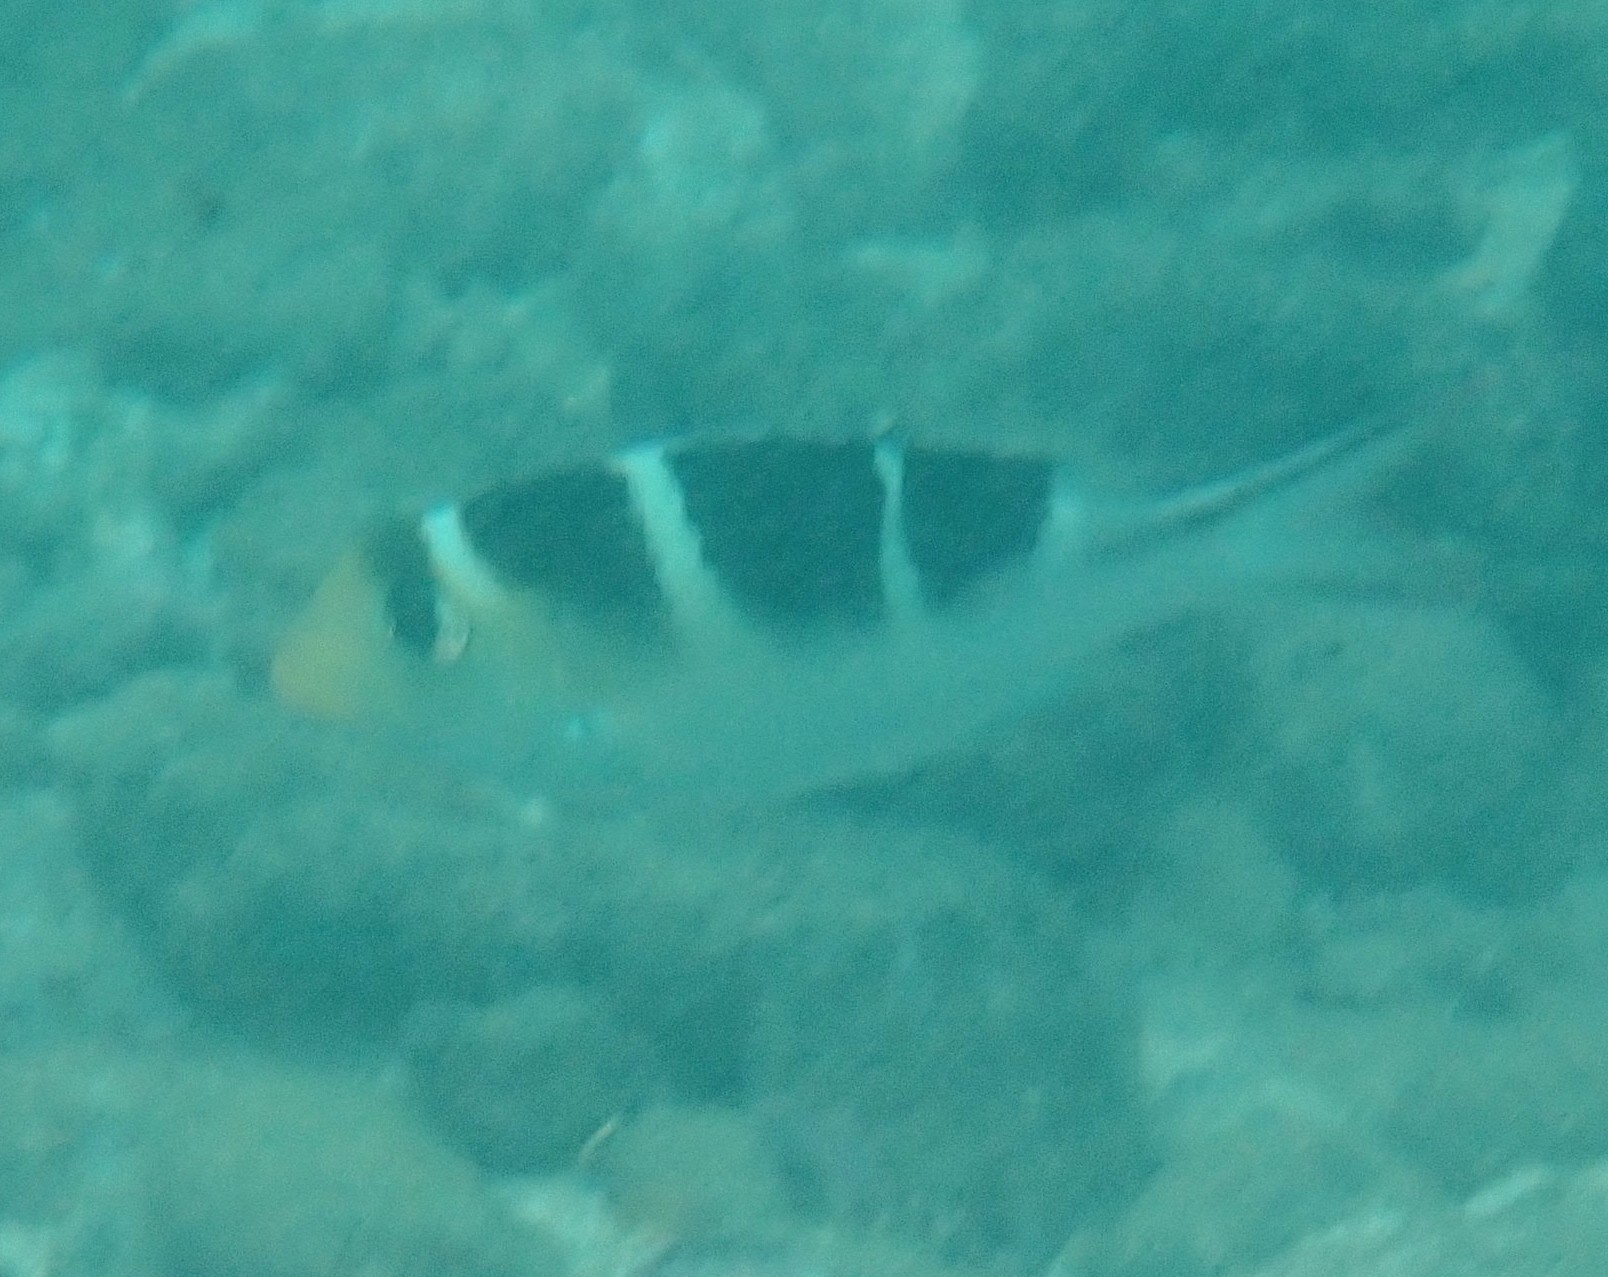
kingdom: Animalia
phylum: Chordata
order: Perciformes
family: Lethrinidae
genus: Monotaxis
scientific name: Monotaxis grandoculis
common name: Bigeye emperor
